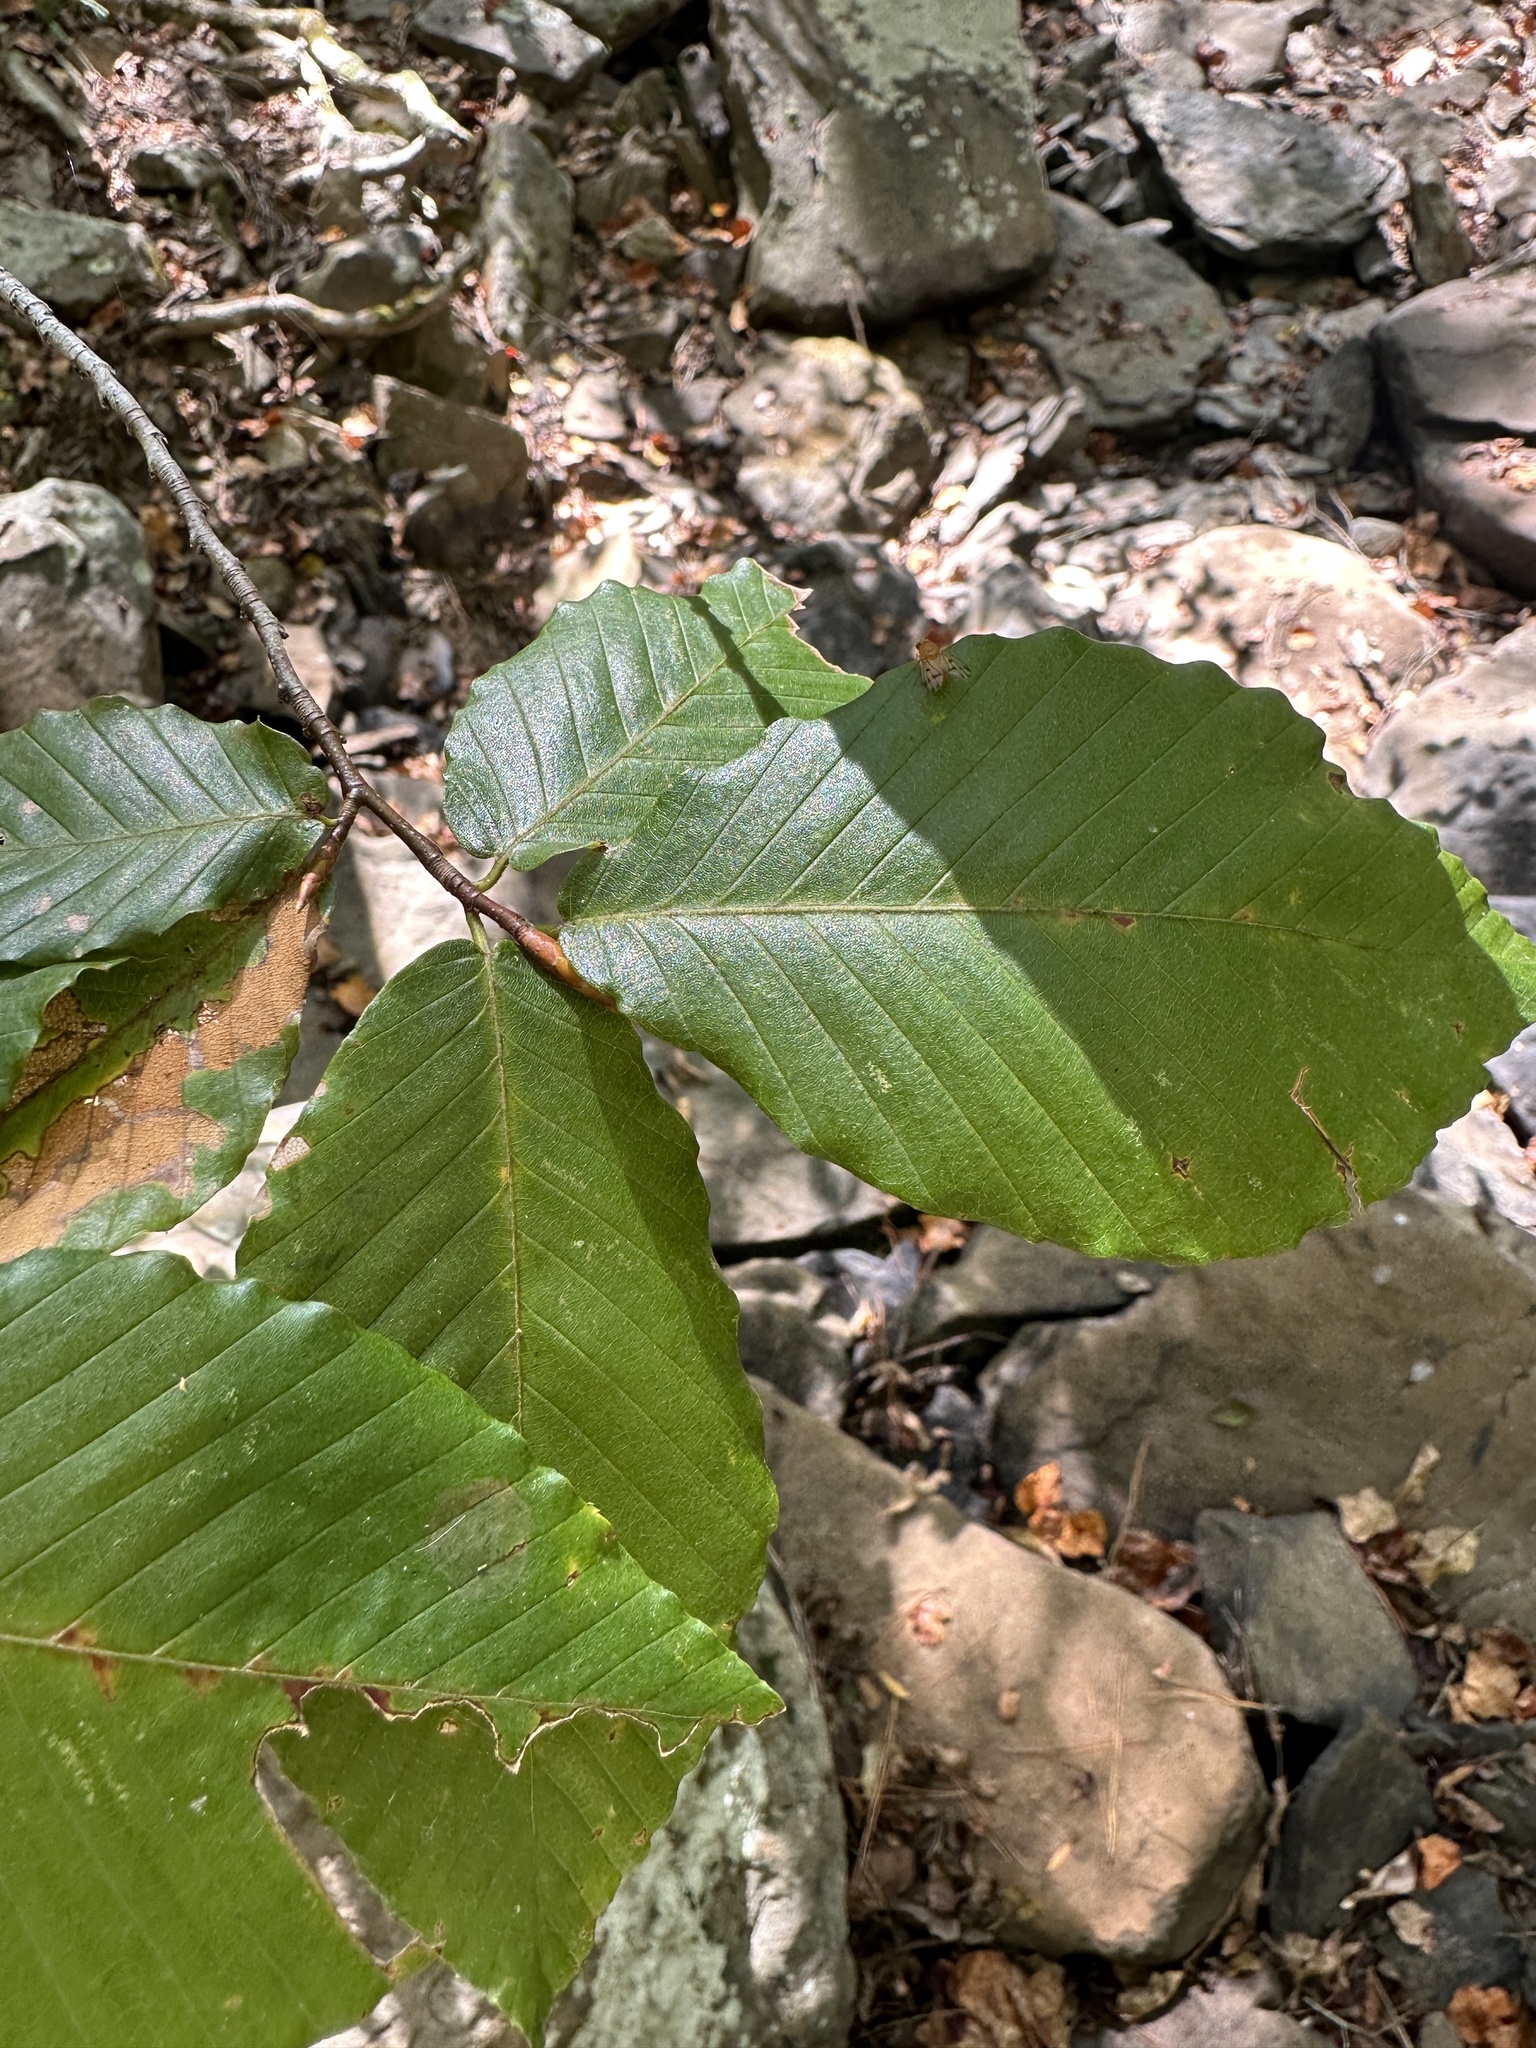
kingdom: Plantae
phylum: Tracheophyta
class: Magnoliopsida
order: Fagales
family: Fagaceae
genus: Fagus
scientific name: Fagus grandifolia
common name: American beech
